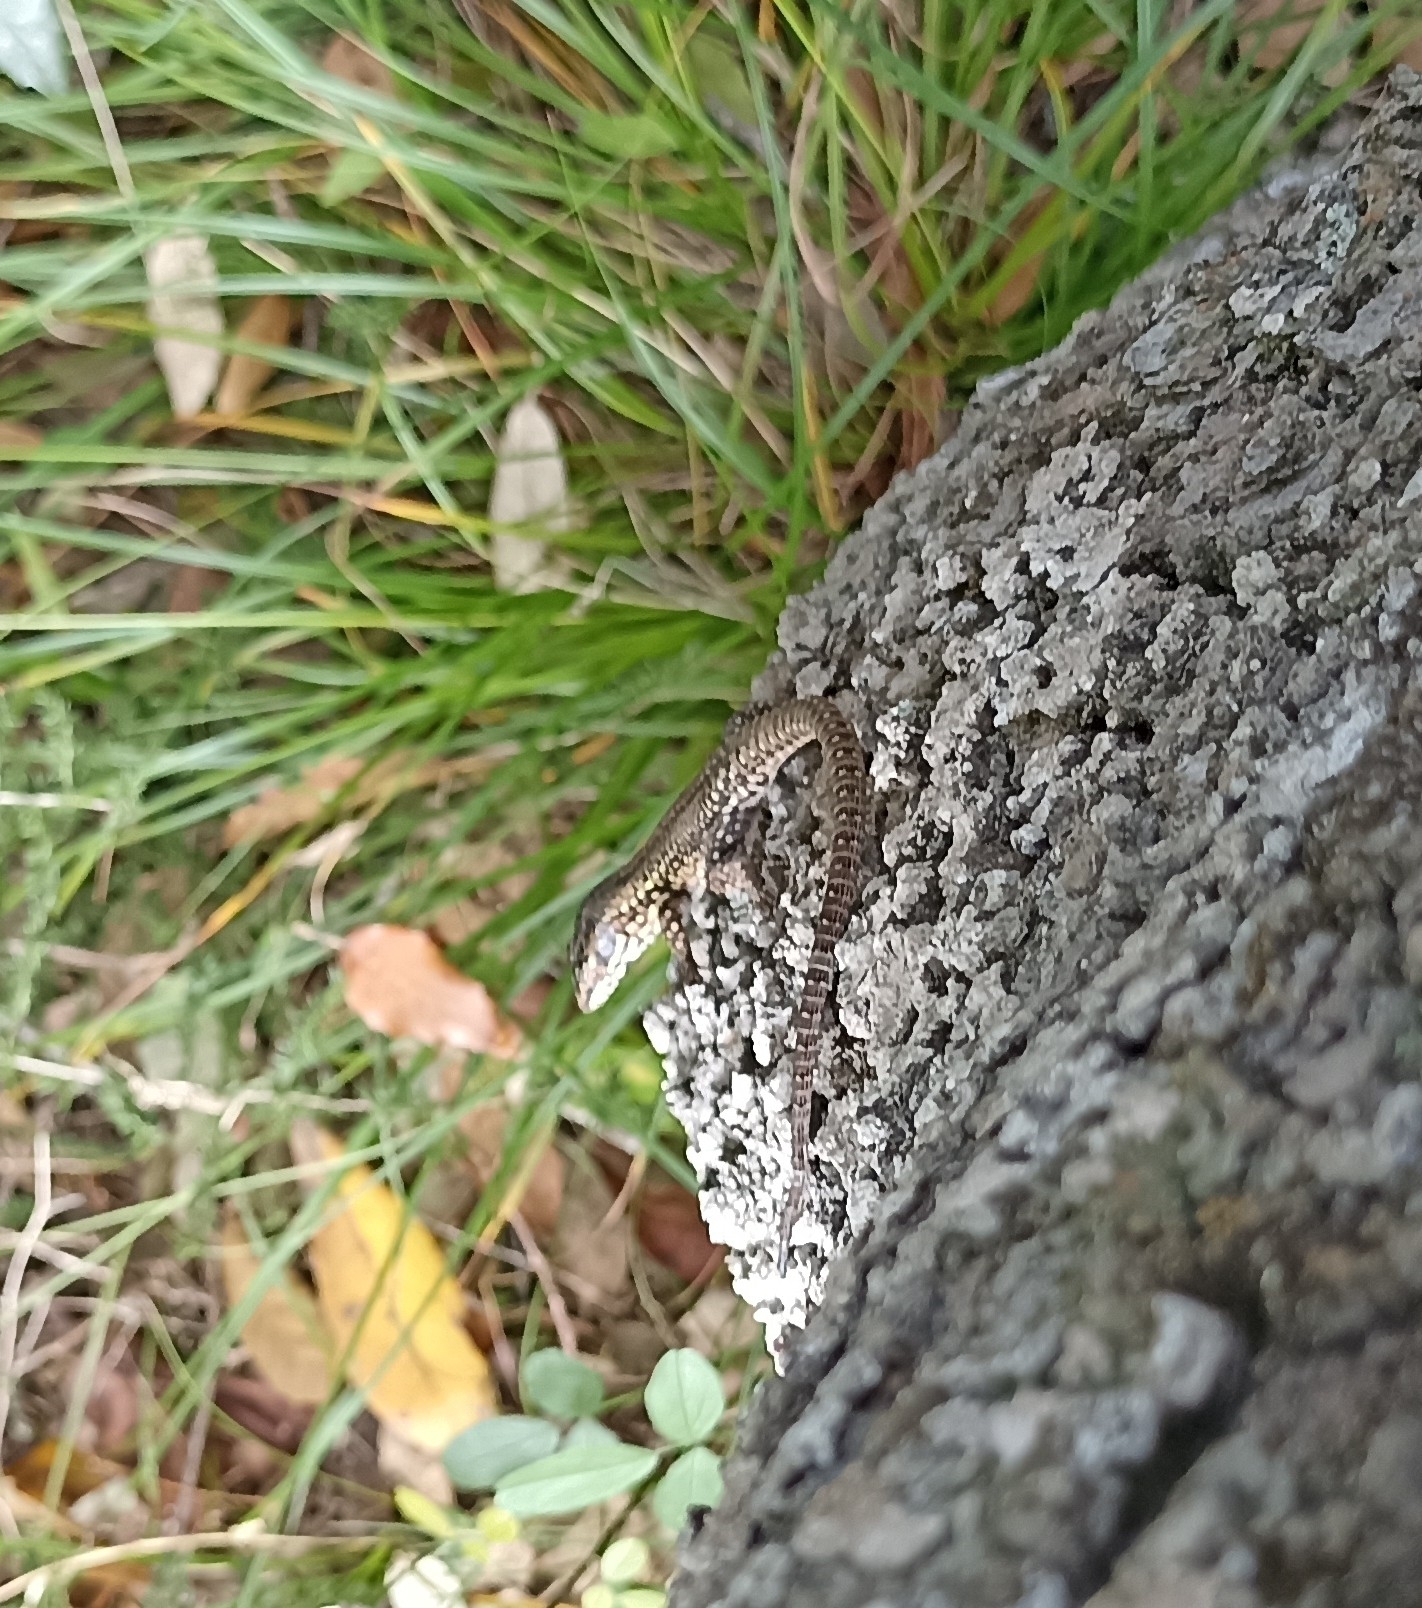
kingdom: Animalia
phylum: Chordata
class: Squamata
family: Lacertidae
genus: Podarcis
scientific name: Podarcis muralis
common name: Common wall lizard
